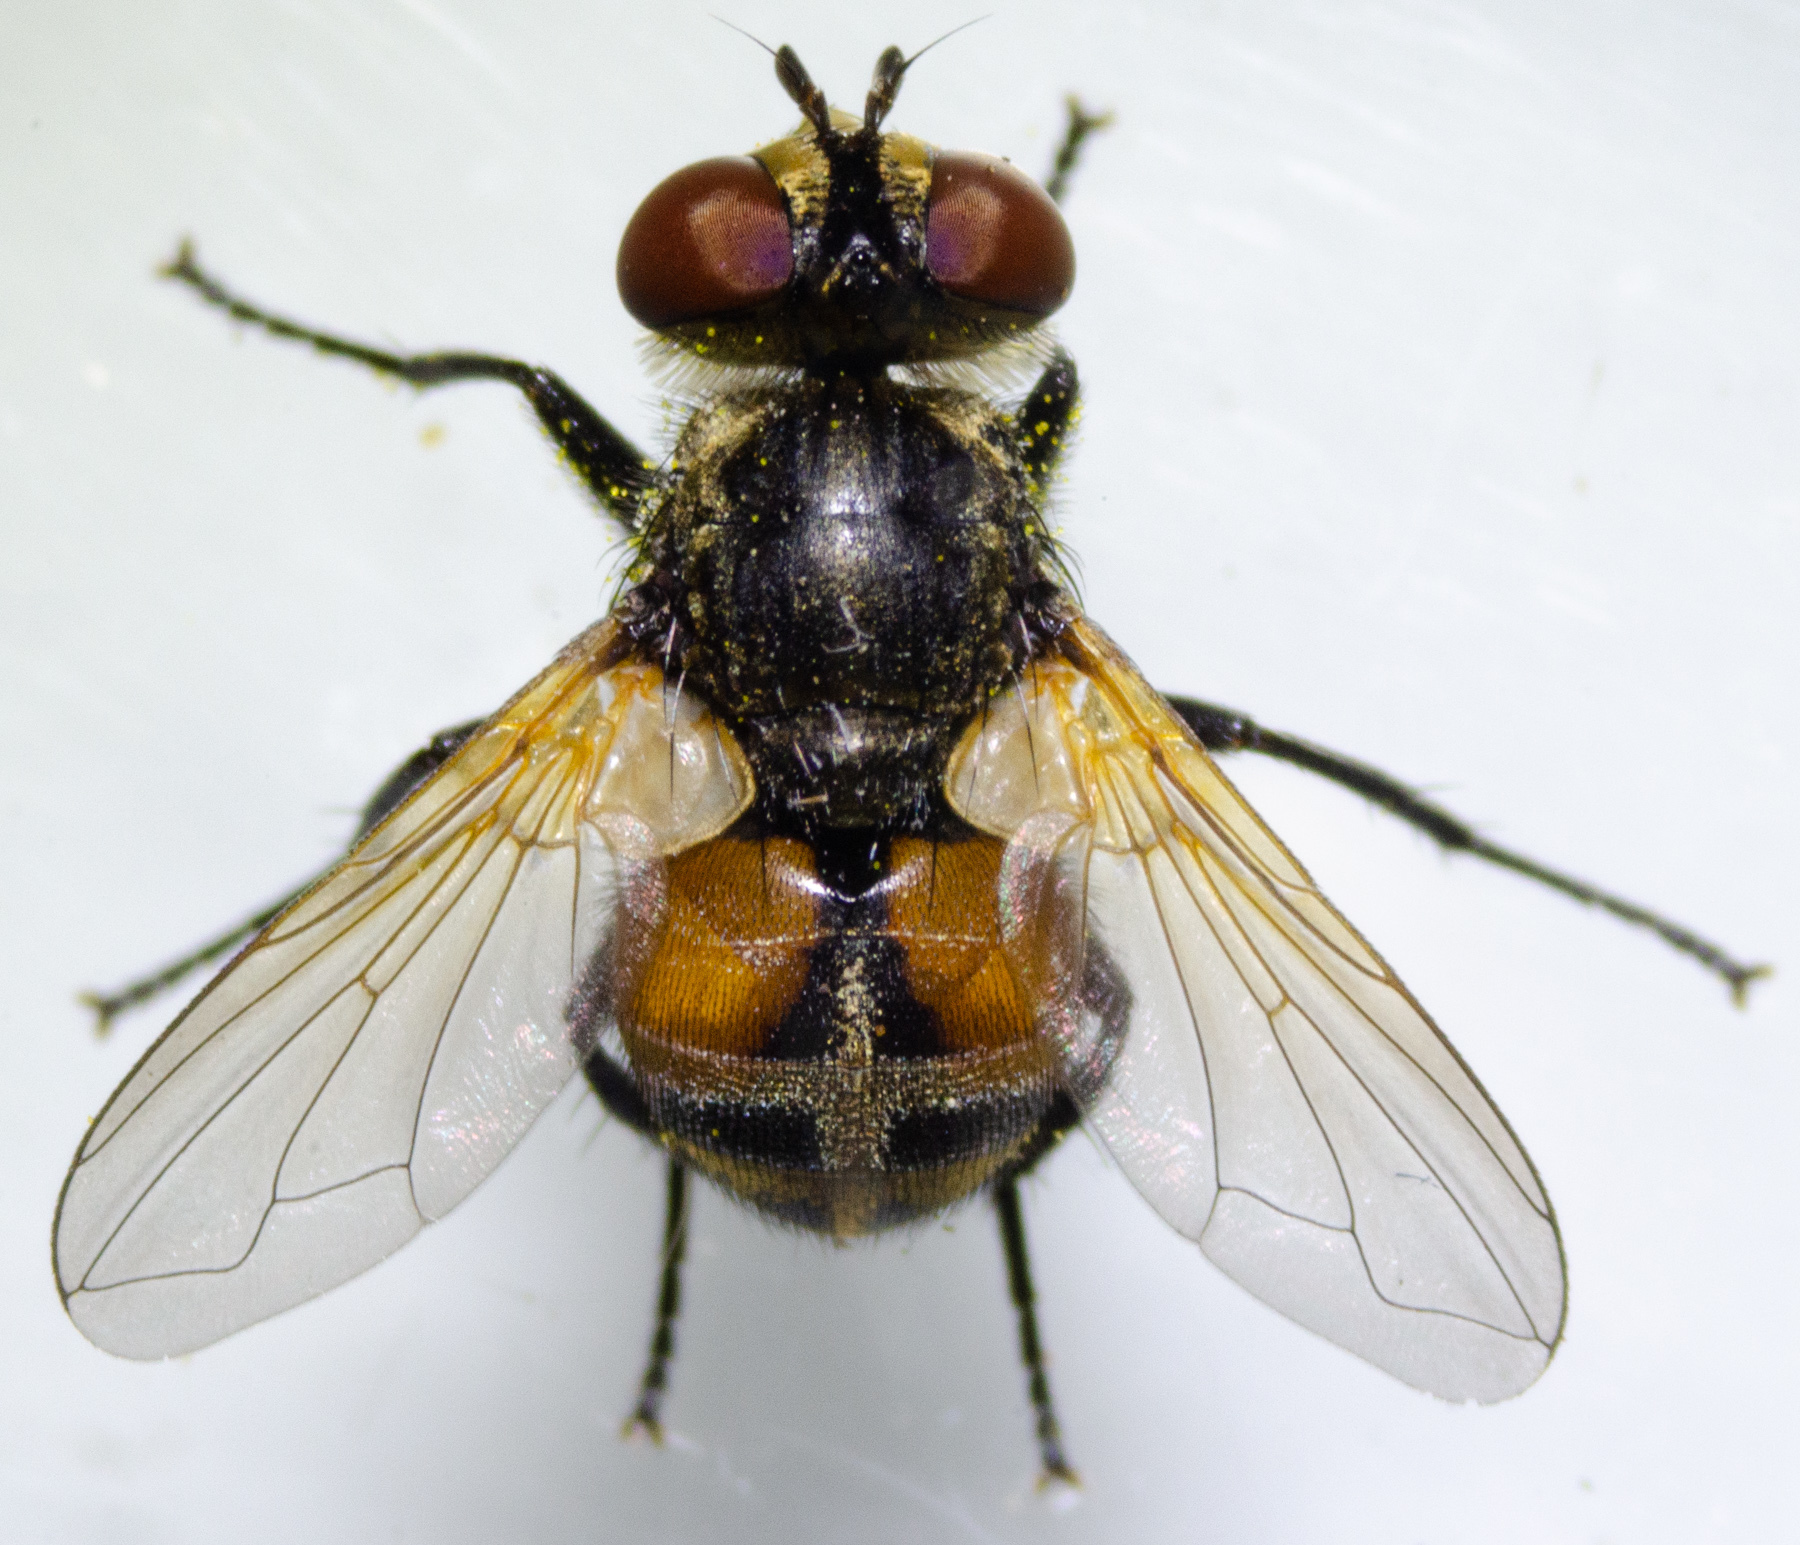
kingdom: Animalia
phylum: Arthropoda
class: Insecta
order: Diptera
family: Tachinidae
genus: Gymnoclytia
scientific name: Gymnoclytia occidentalis
